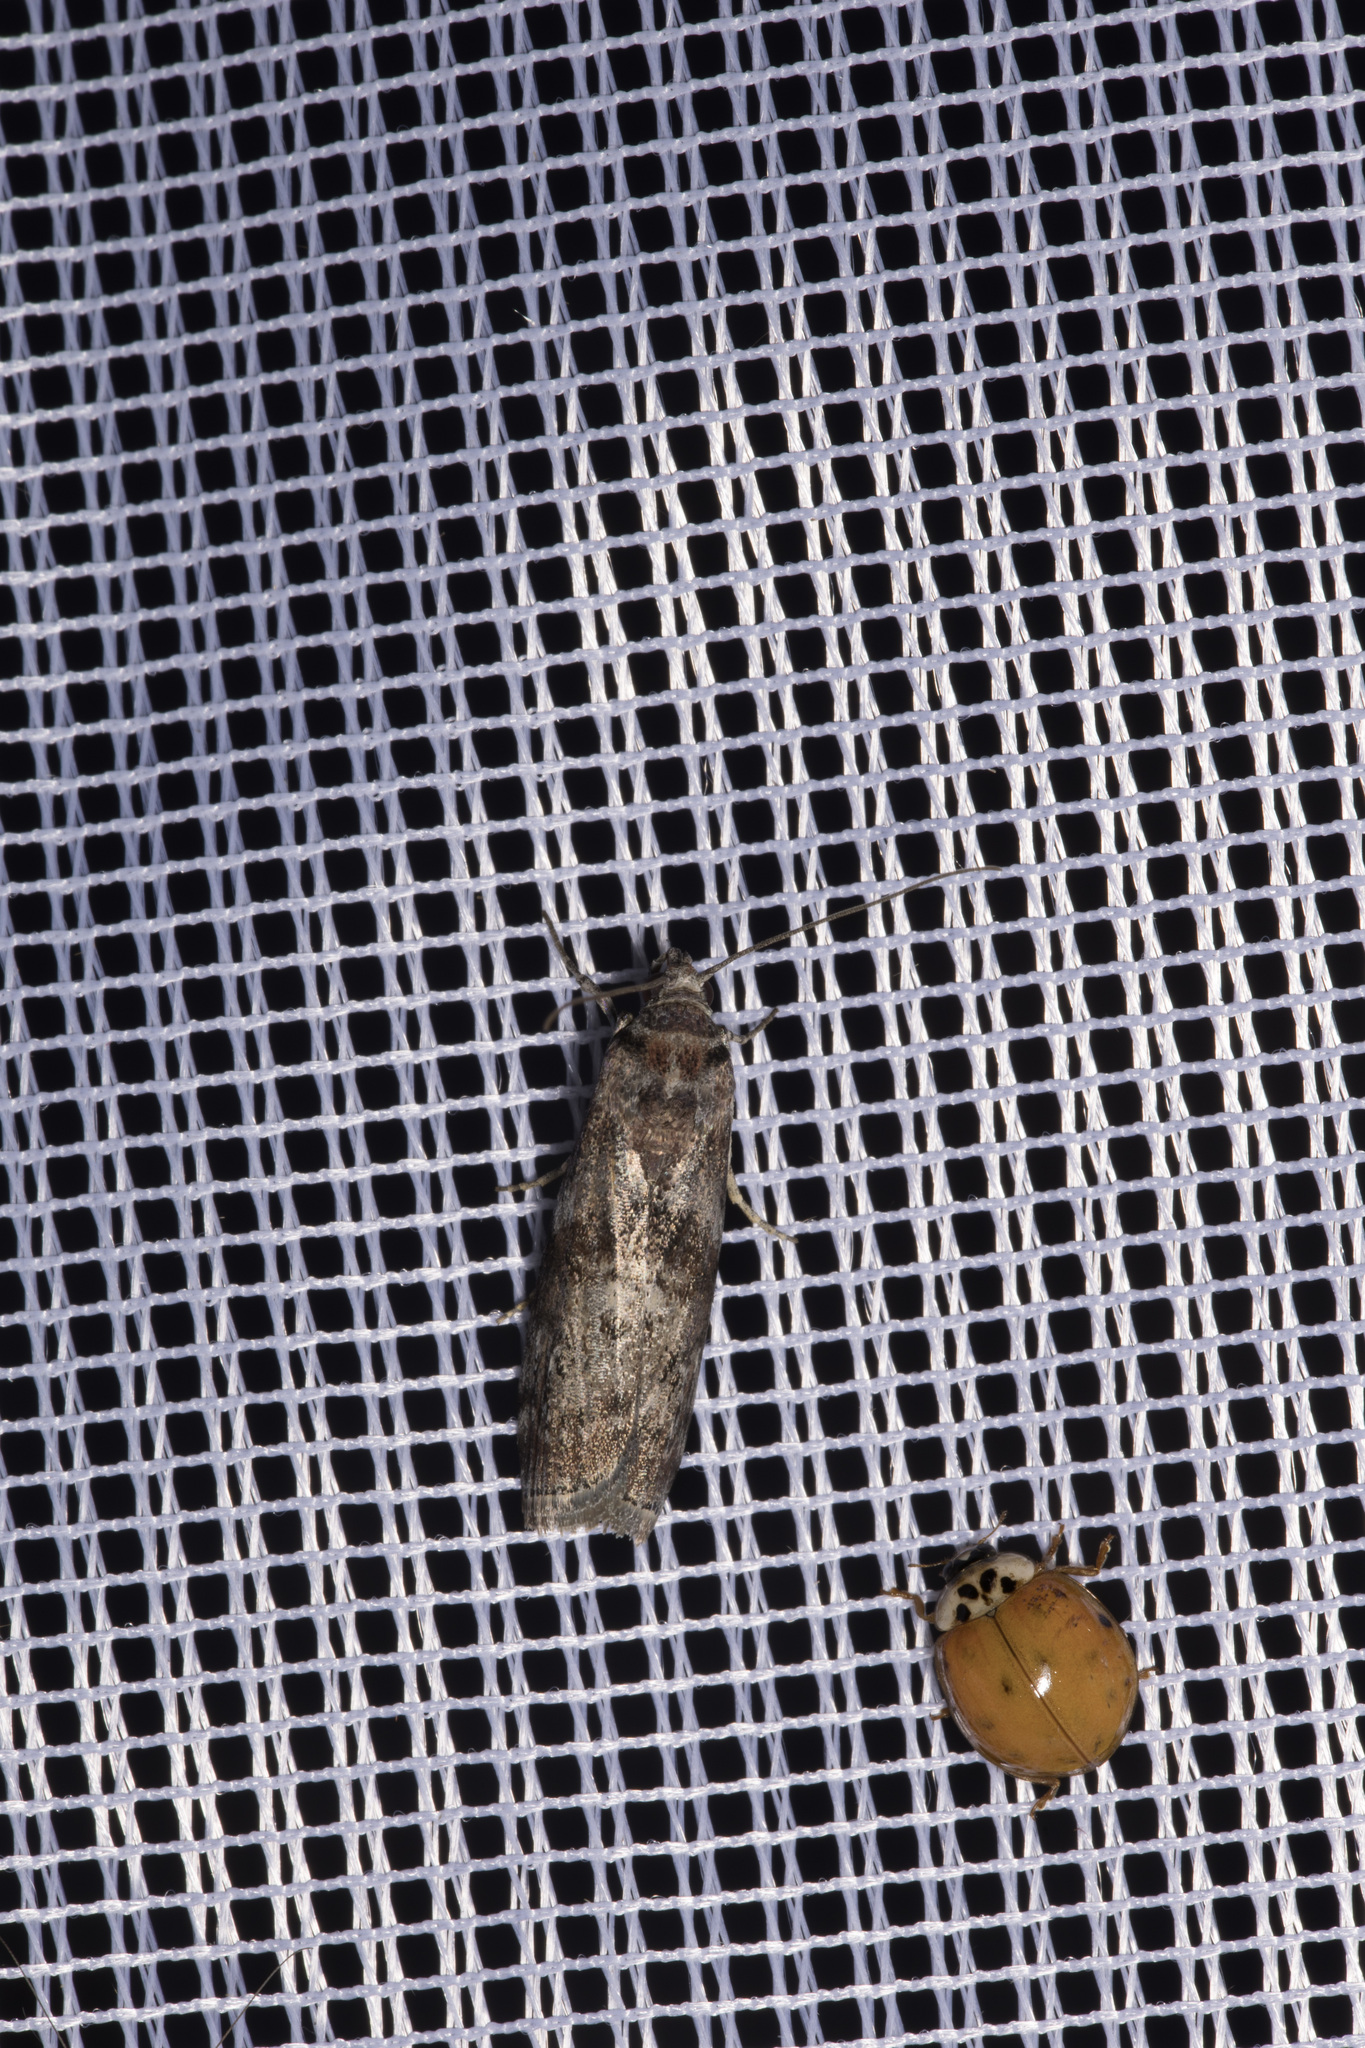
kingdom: Animalia
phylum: Arthropoda
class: Insecta
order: Coleoptera
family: Coccinellidae
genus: Harmonia
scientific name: Harmonia axyridis
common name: Harlequin ladybird
